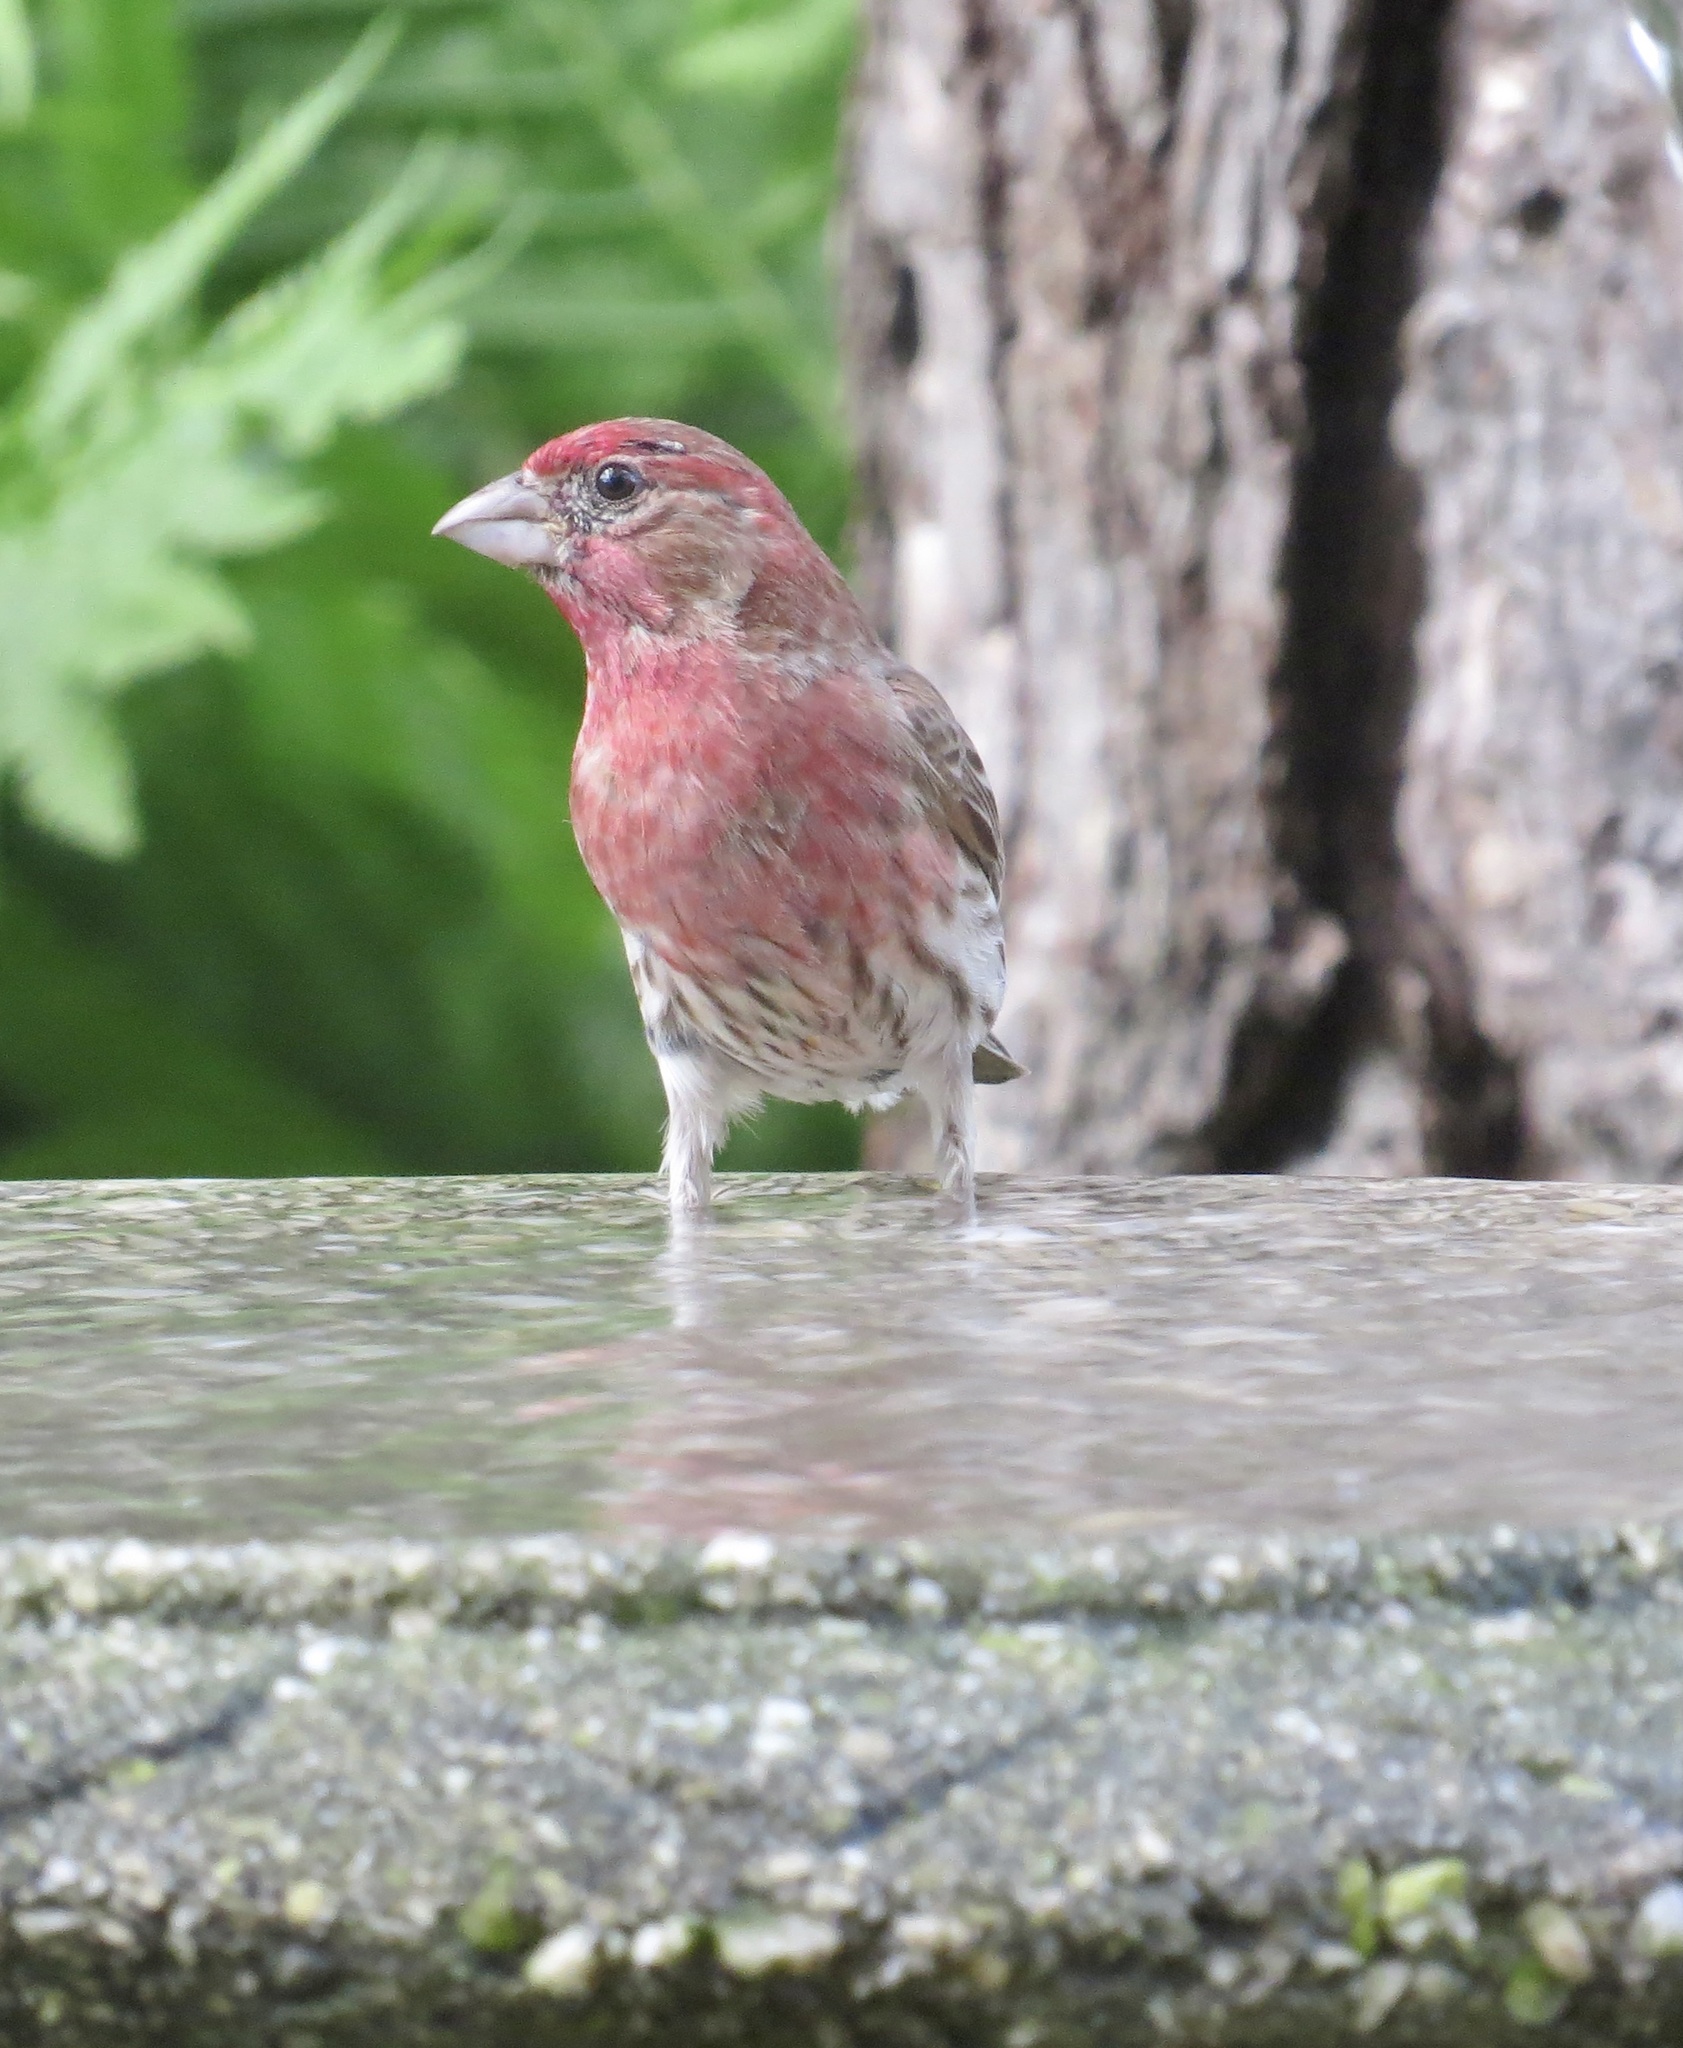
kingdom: Animalia
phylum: Chordata
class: Aves
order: Passeriformes
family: Fringillidae
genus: Haemorhous
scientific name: Haemorhous mexicanus
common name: House finch
